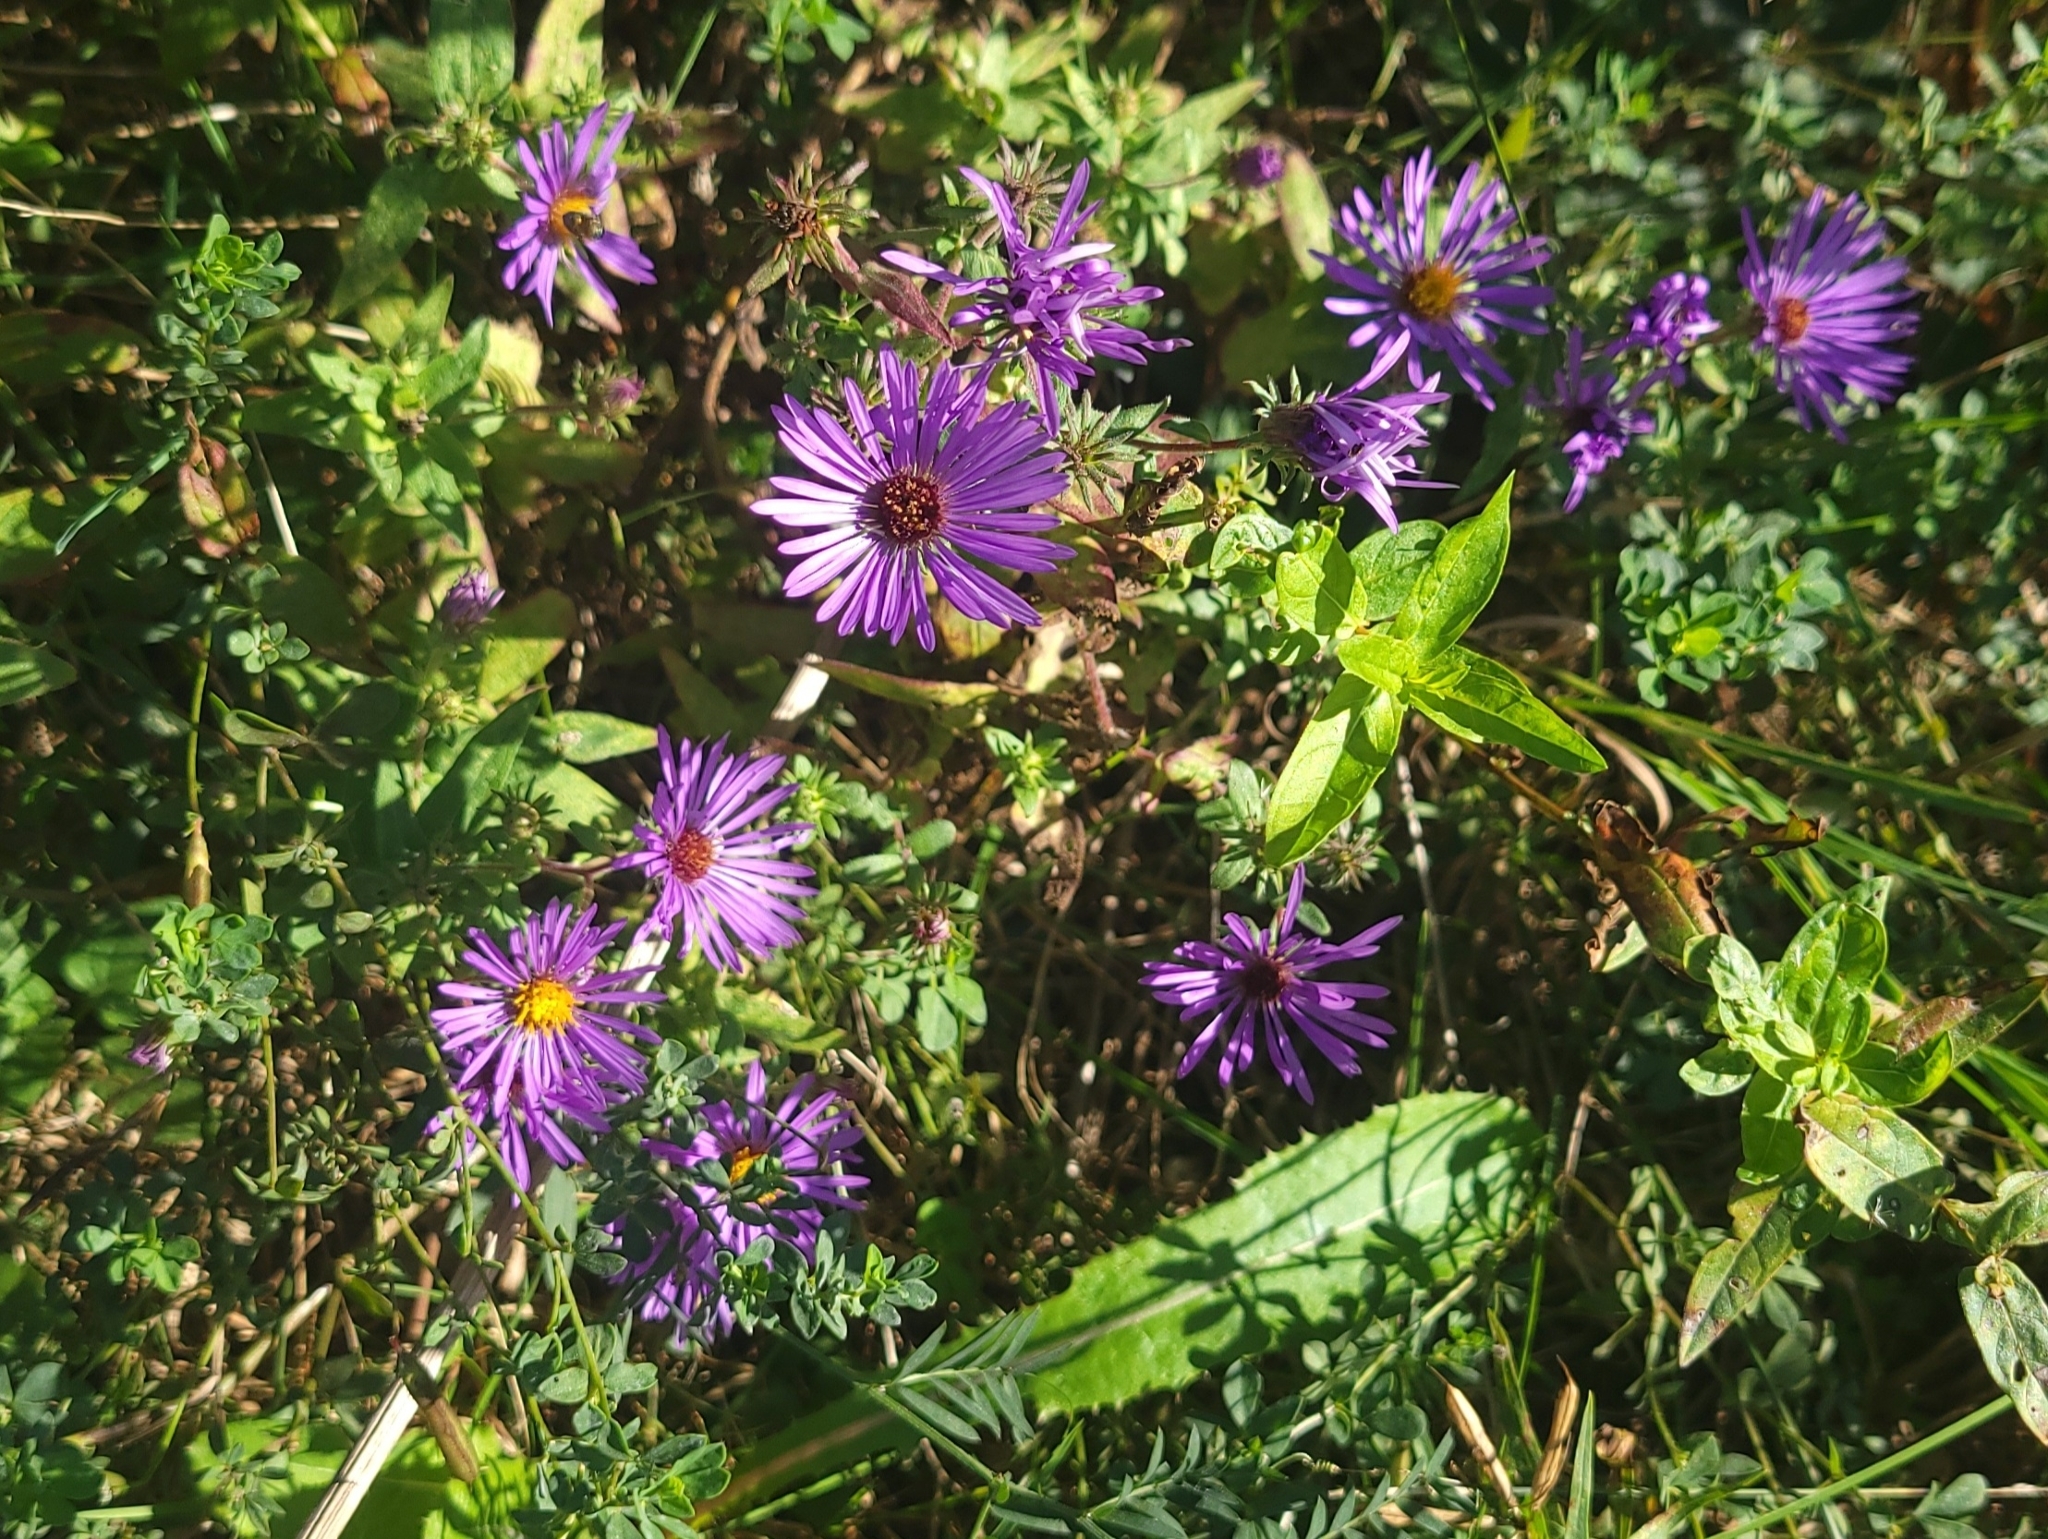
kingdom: Plantae
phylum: Tracheophyta
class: Magnoliopsida
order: Asterales
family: Asteraceae
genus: Symphyotrichum
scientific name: Symphyotrichum novae-angliae
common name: Michaelmas daisy
